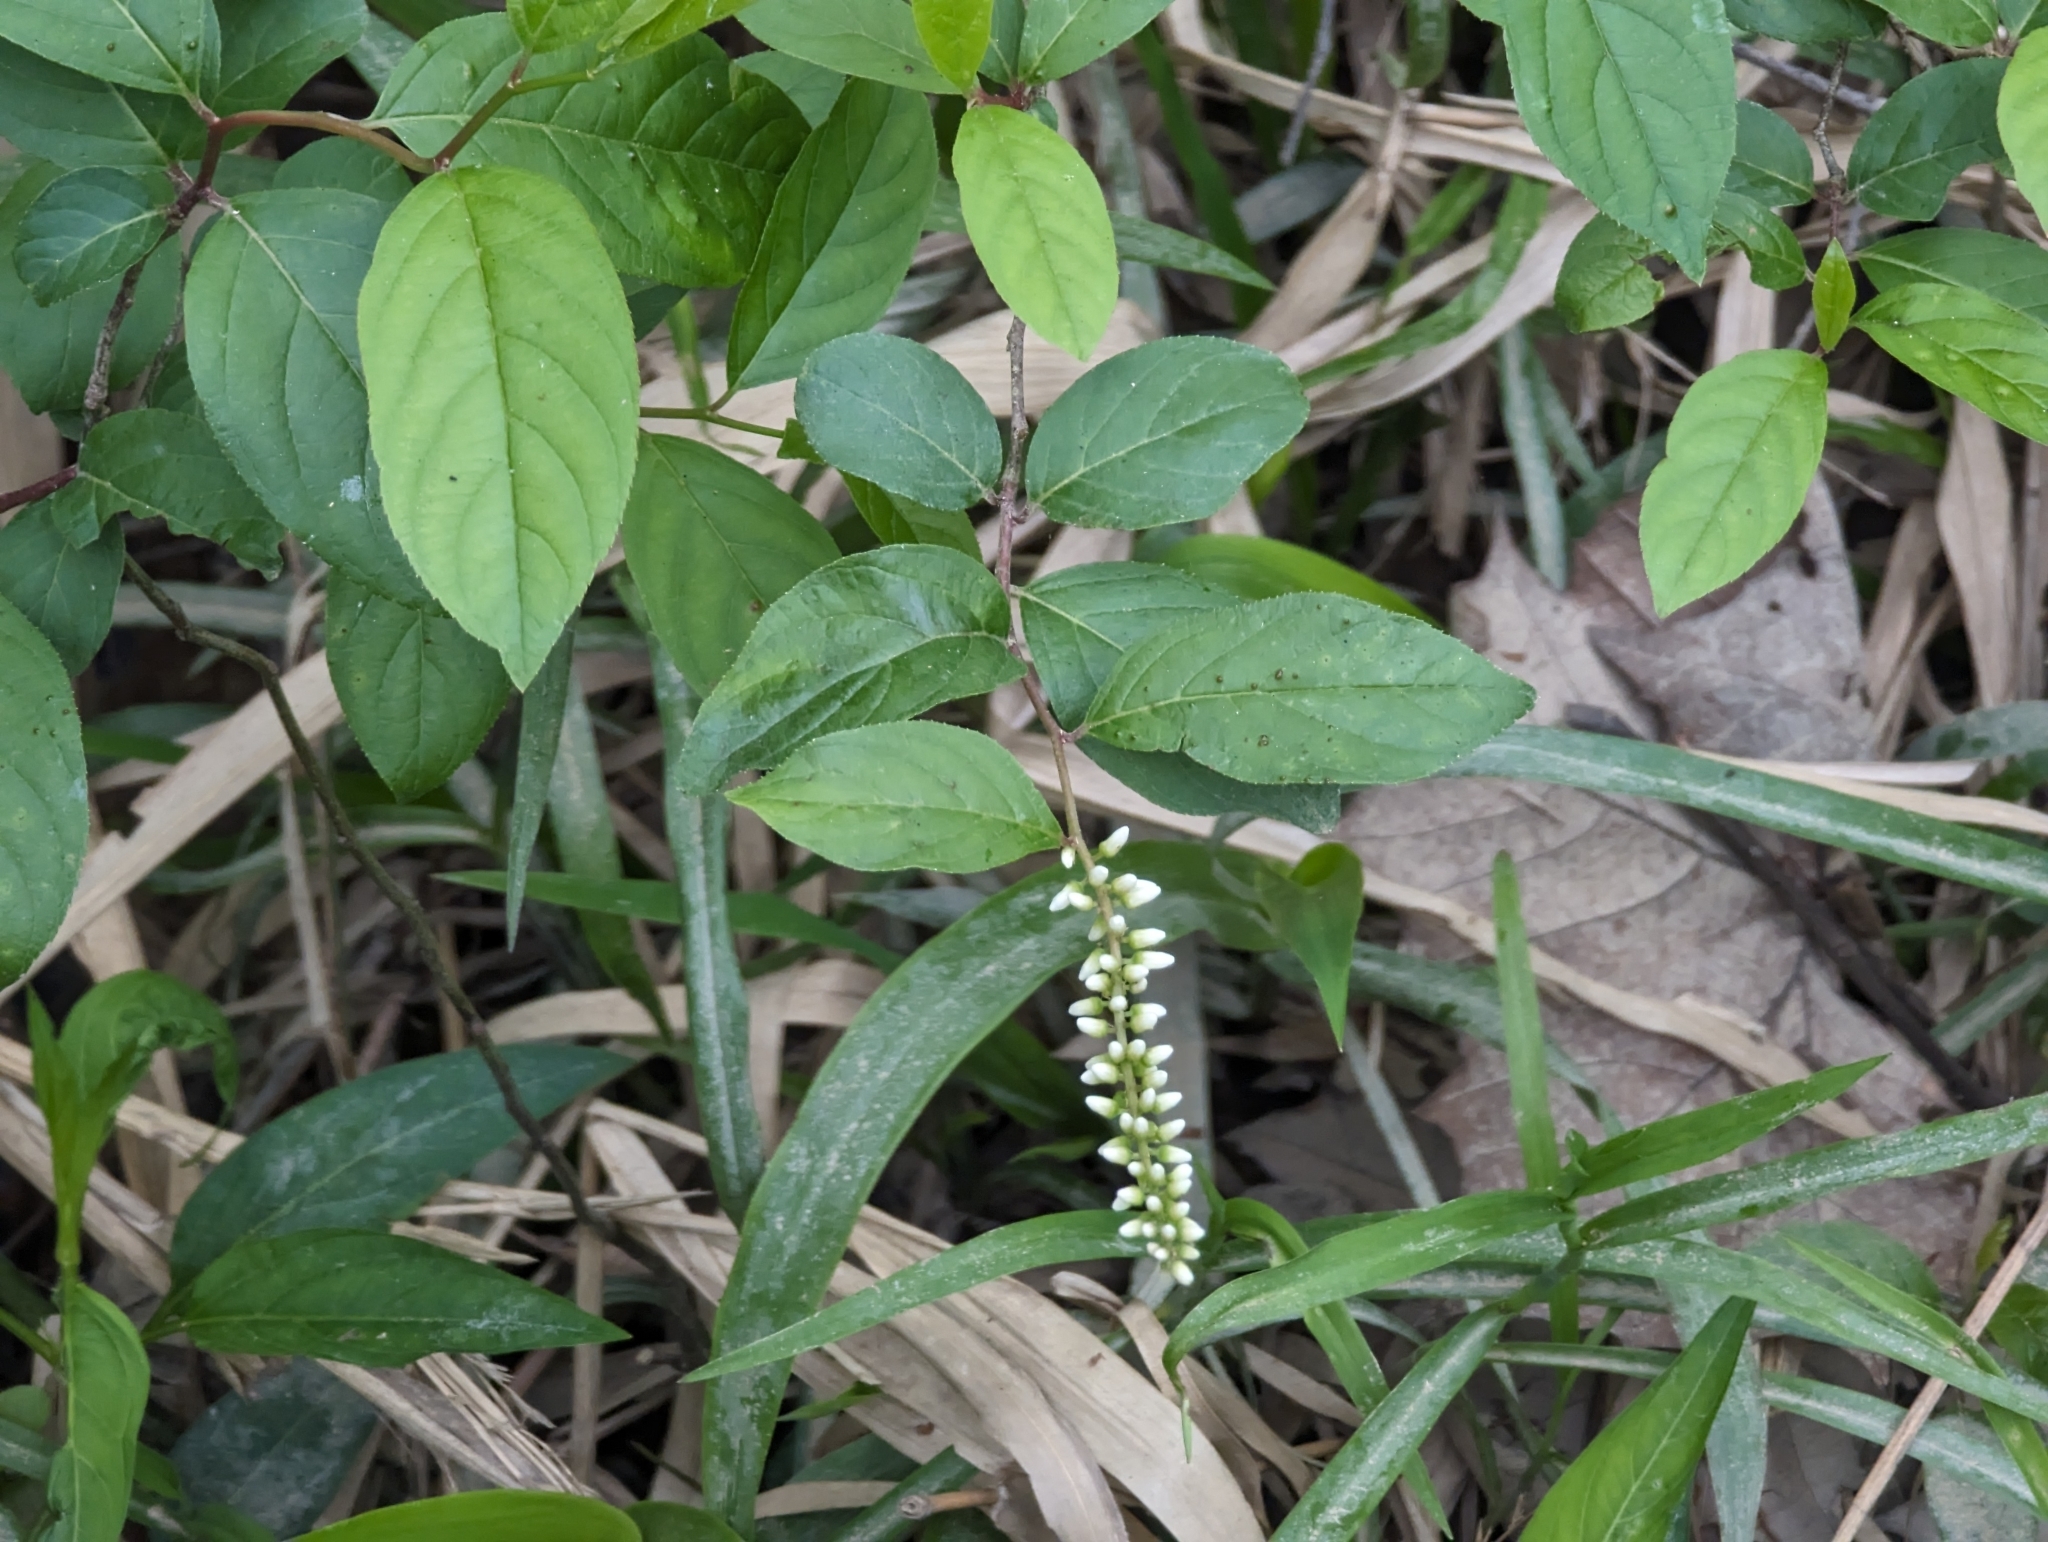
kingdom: Plantae
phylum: Tracheophyta
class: Magnoliopsida
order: Saxifragales
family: Iteaceae
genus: Itea
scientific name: Itea virginica
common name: Sweetspire
